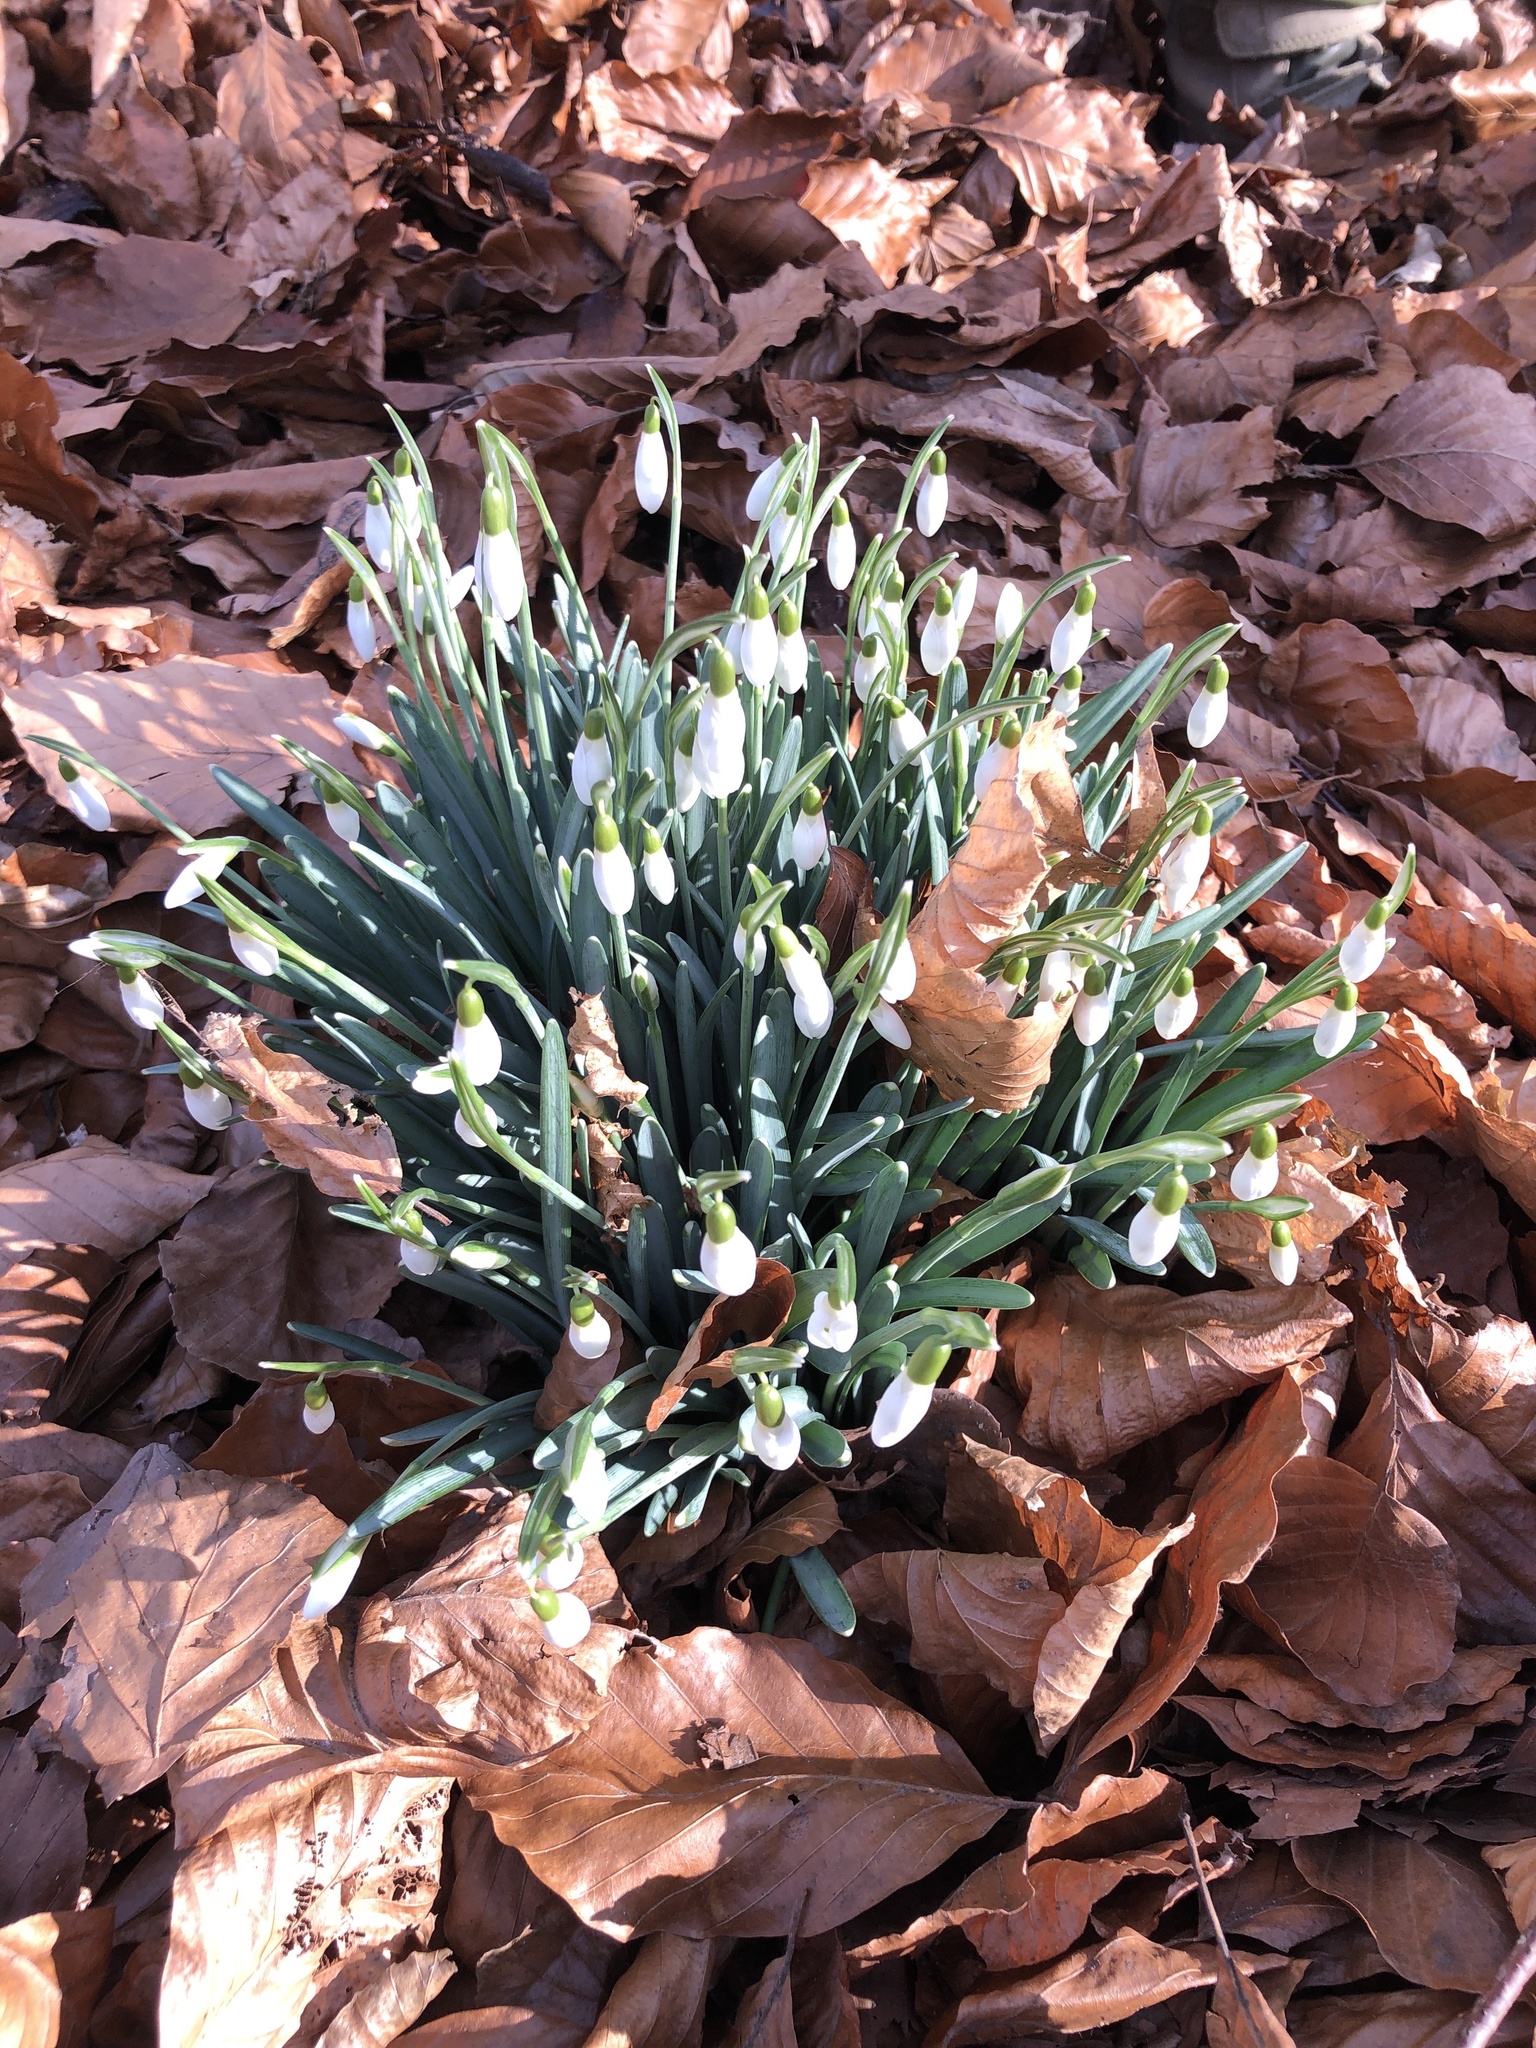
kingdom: Plantae
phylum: Tracheophyta
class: Liliopsida
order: Asparagales
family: Amaryllidaceae
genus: Galanthus
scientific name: Galanthus nivalis
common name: Snowdrop
